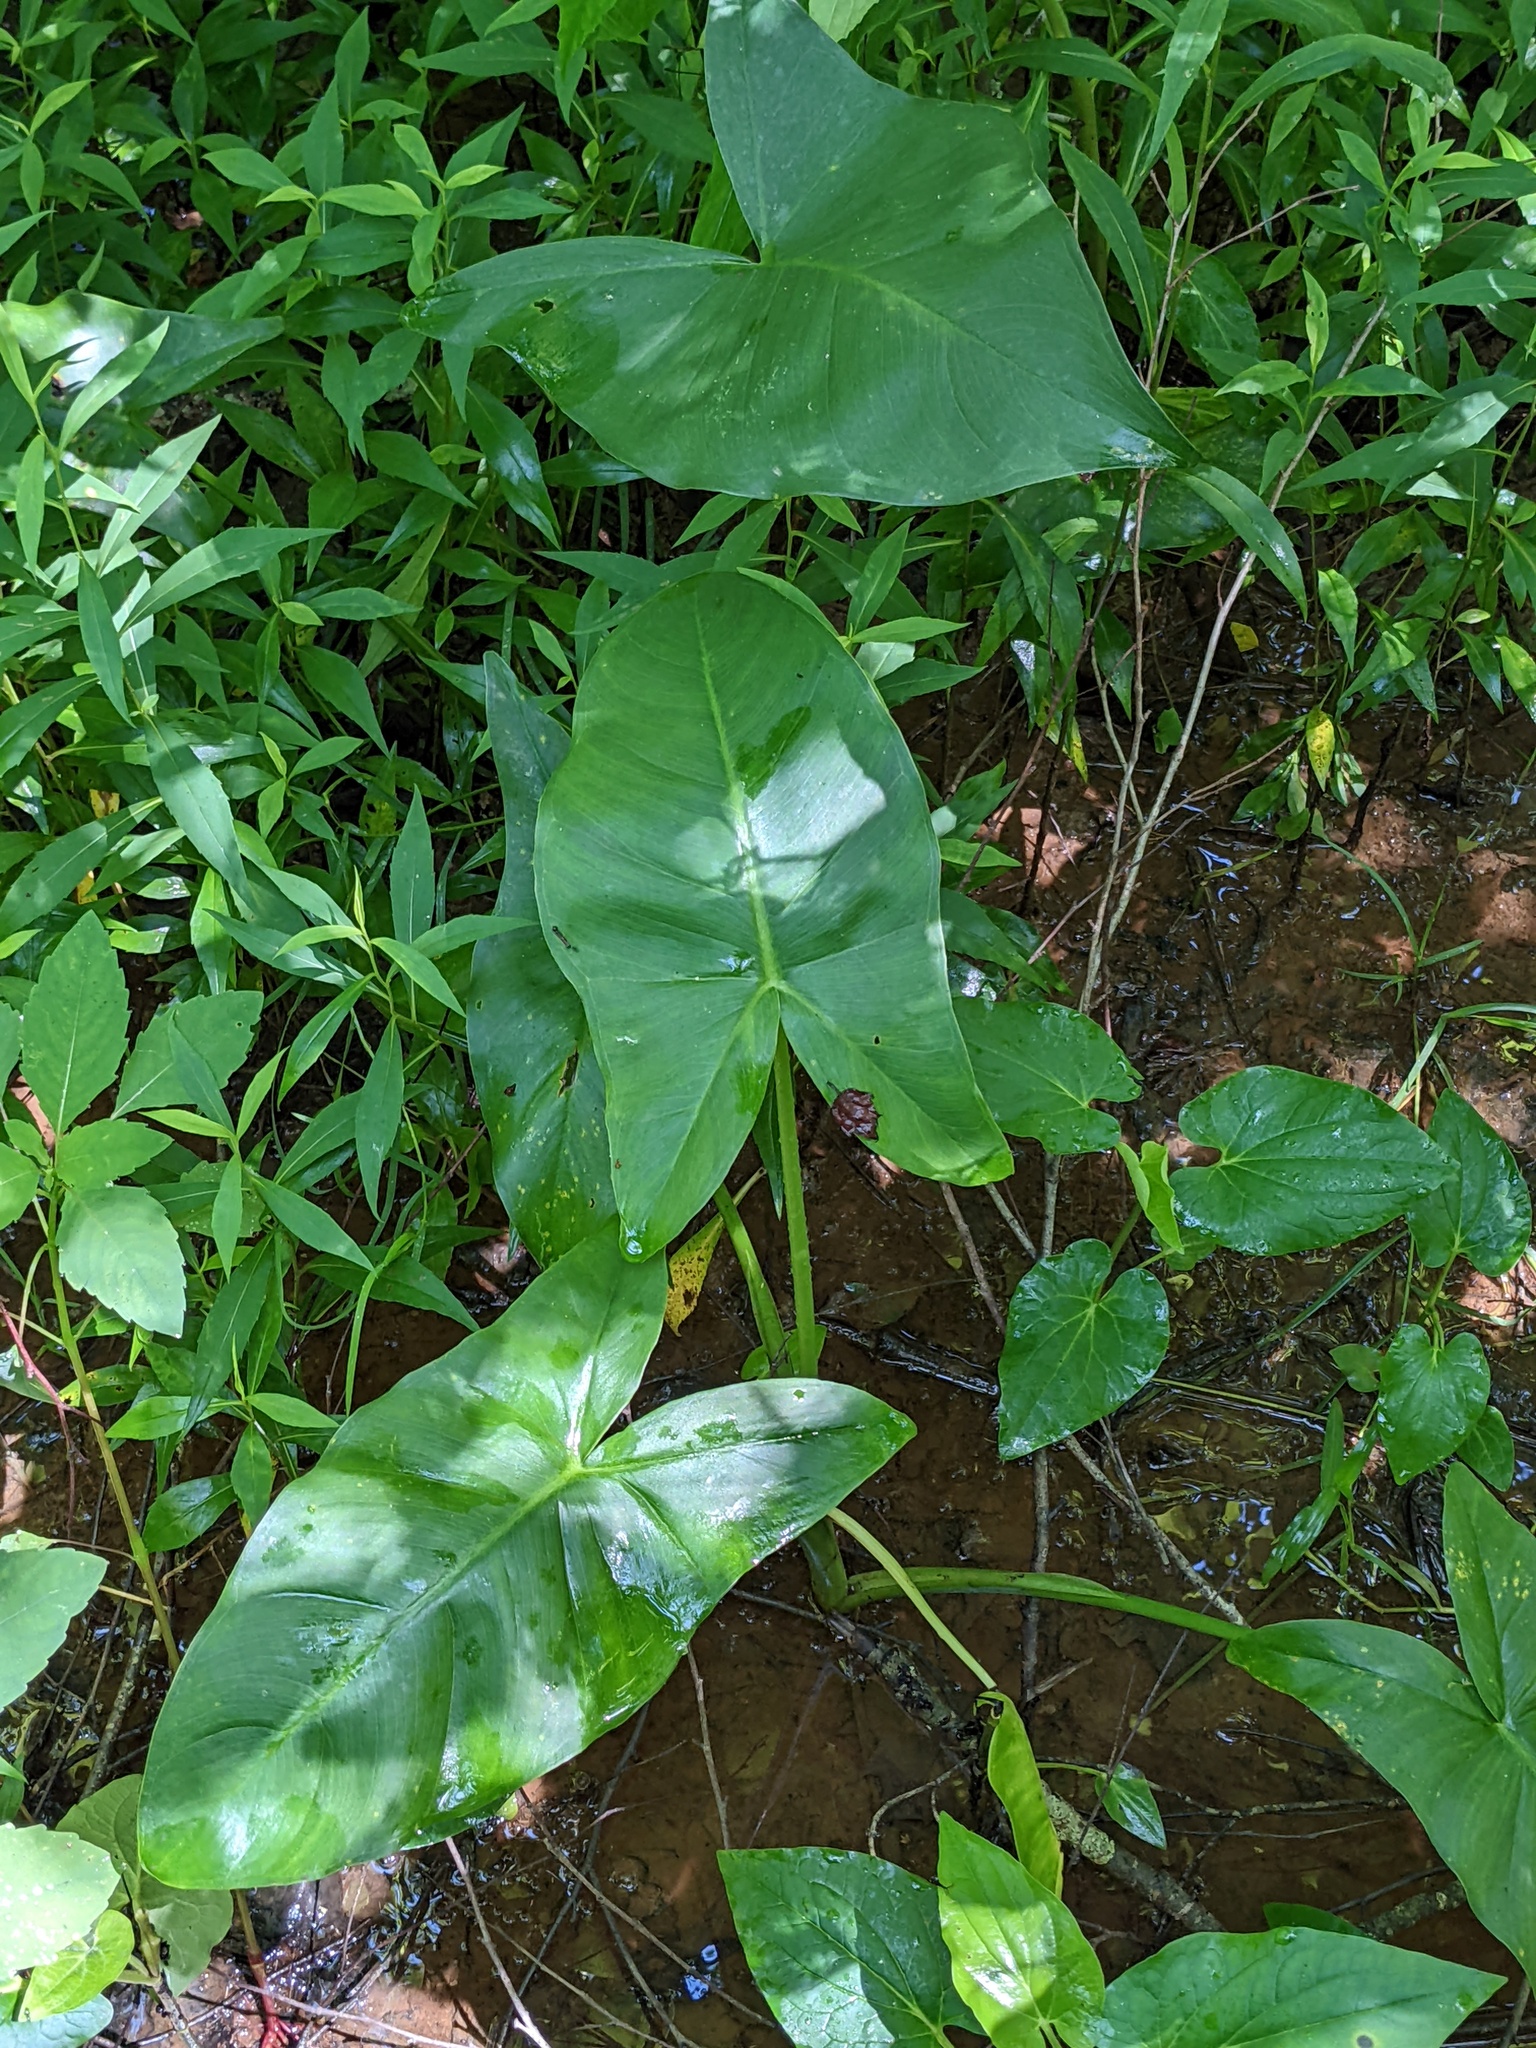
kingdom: Plantae
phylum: Tracheophyta
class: Liliopsida
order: Alismatales
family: Araceae
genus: Peltandra
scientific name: Peltandra virginica
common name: Arrow arum
